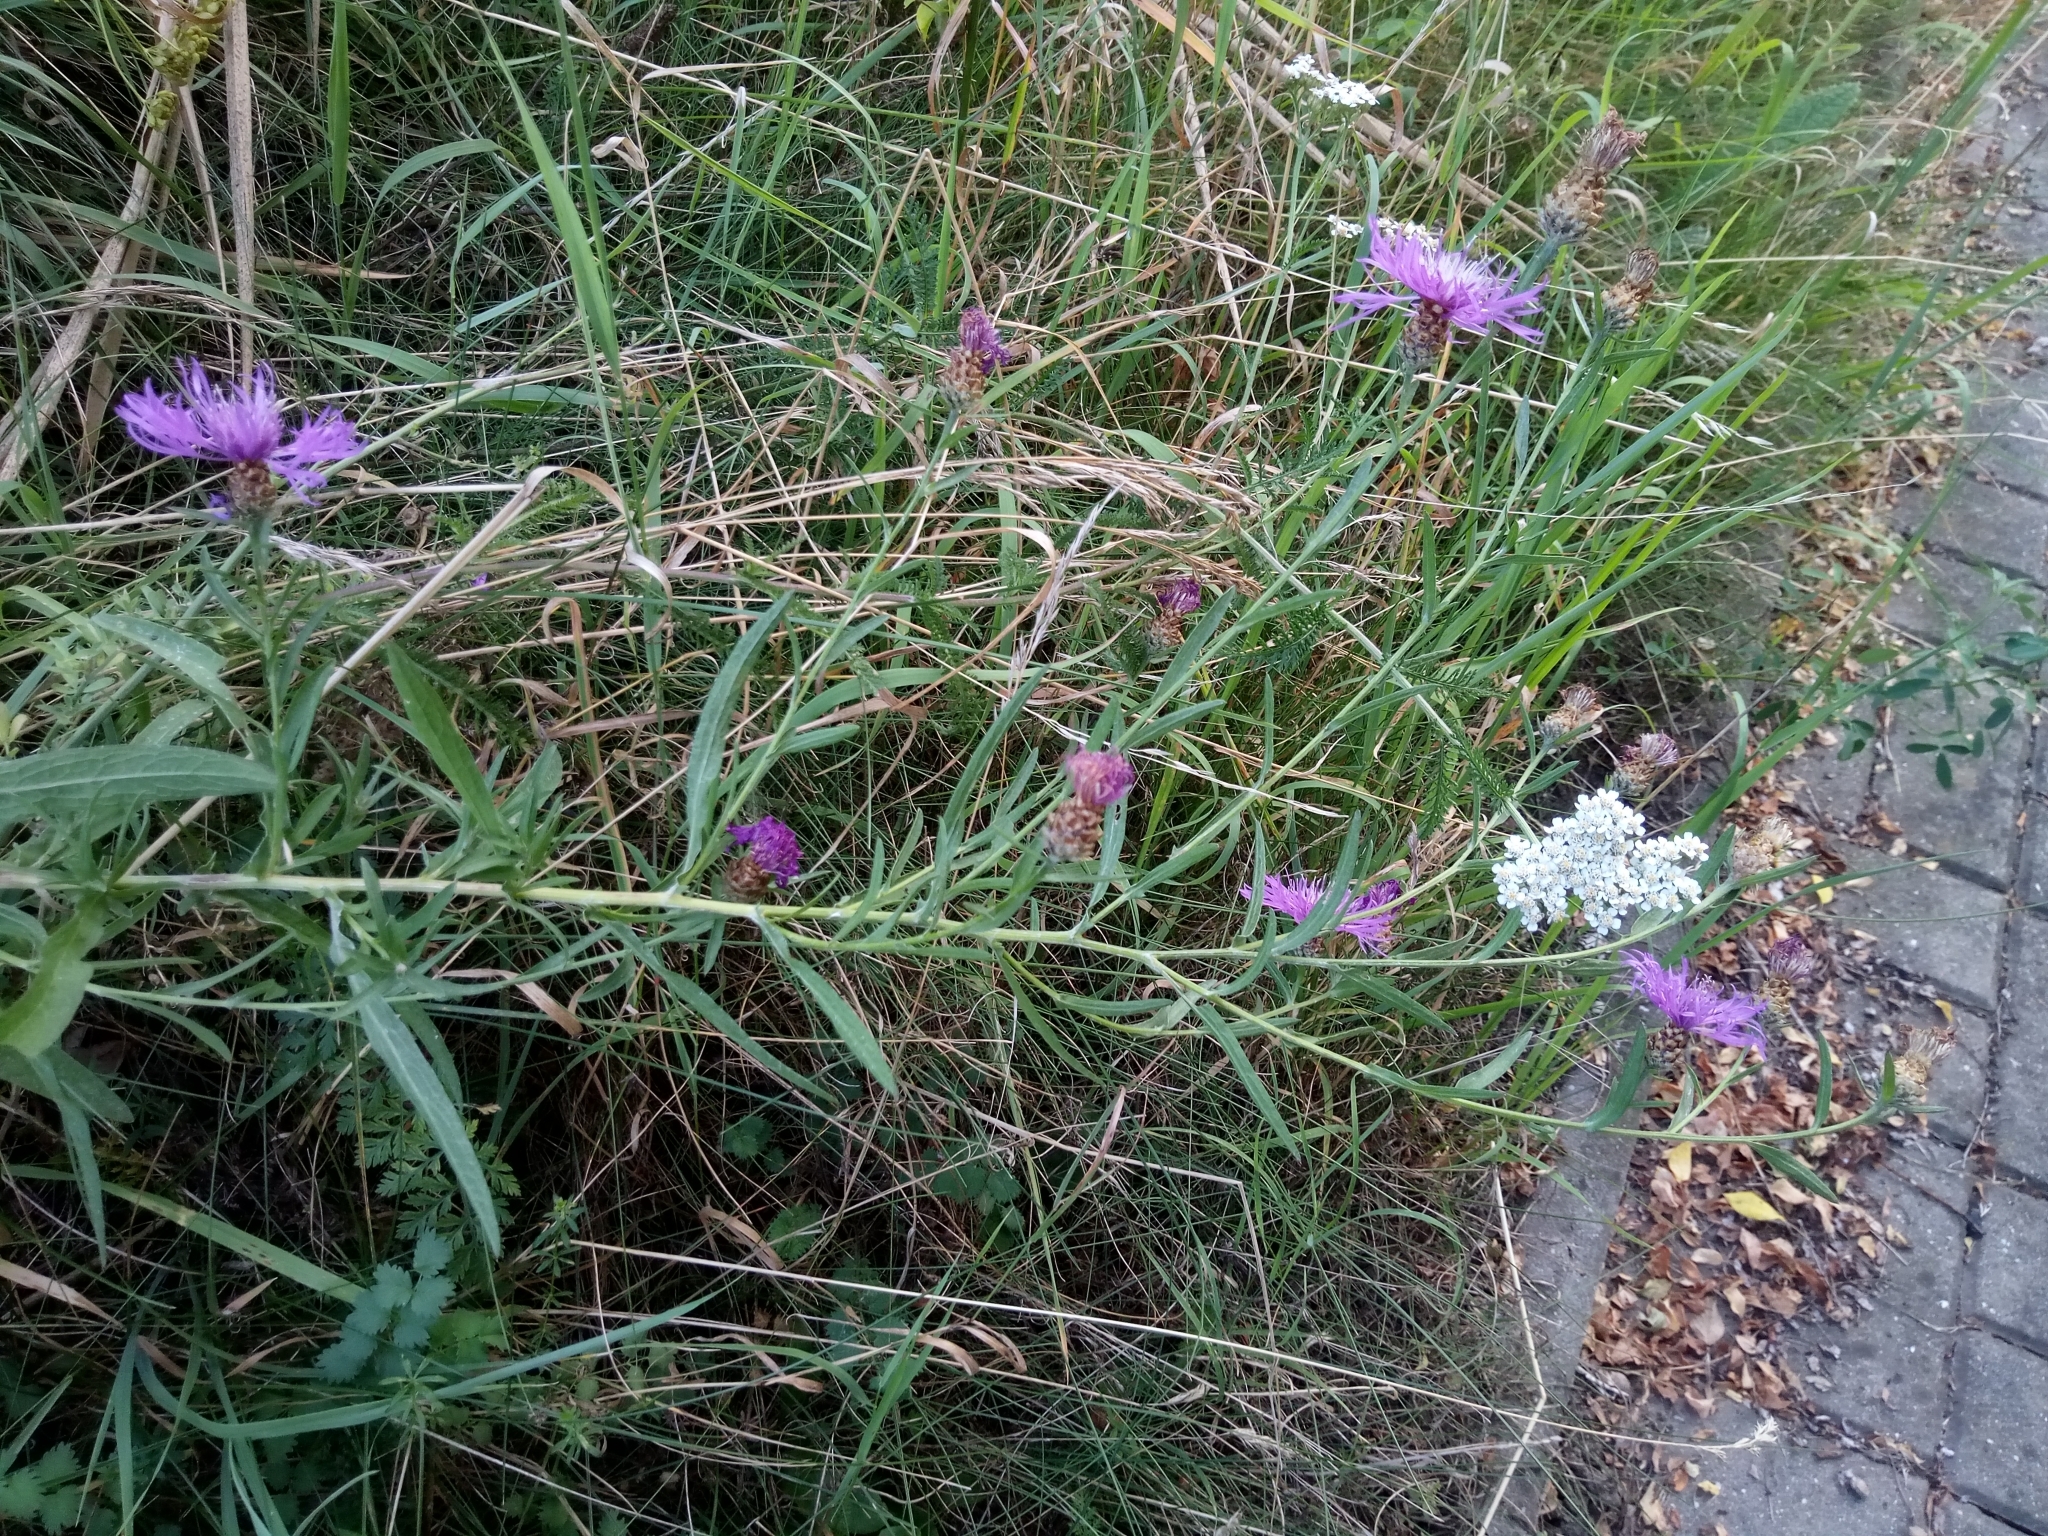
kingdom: Plantae
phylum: Tracheophyta
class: Magnoliopsida
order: Asterales
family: Asteraceae
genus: Centaurea
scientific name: Centaurea jacea
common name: Brown knapweed
